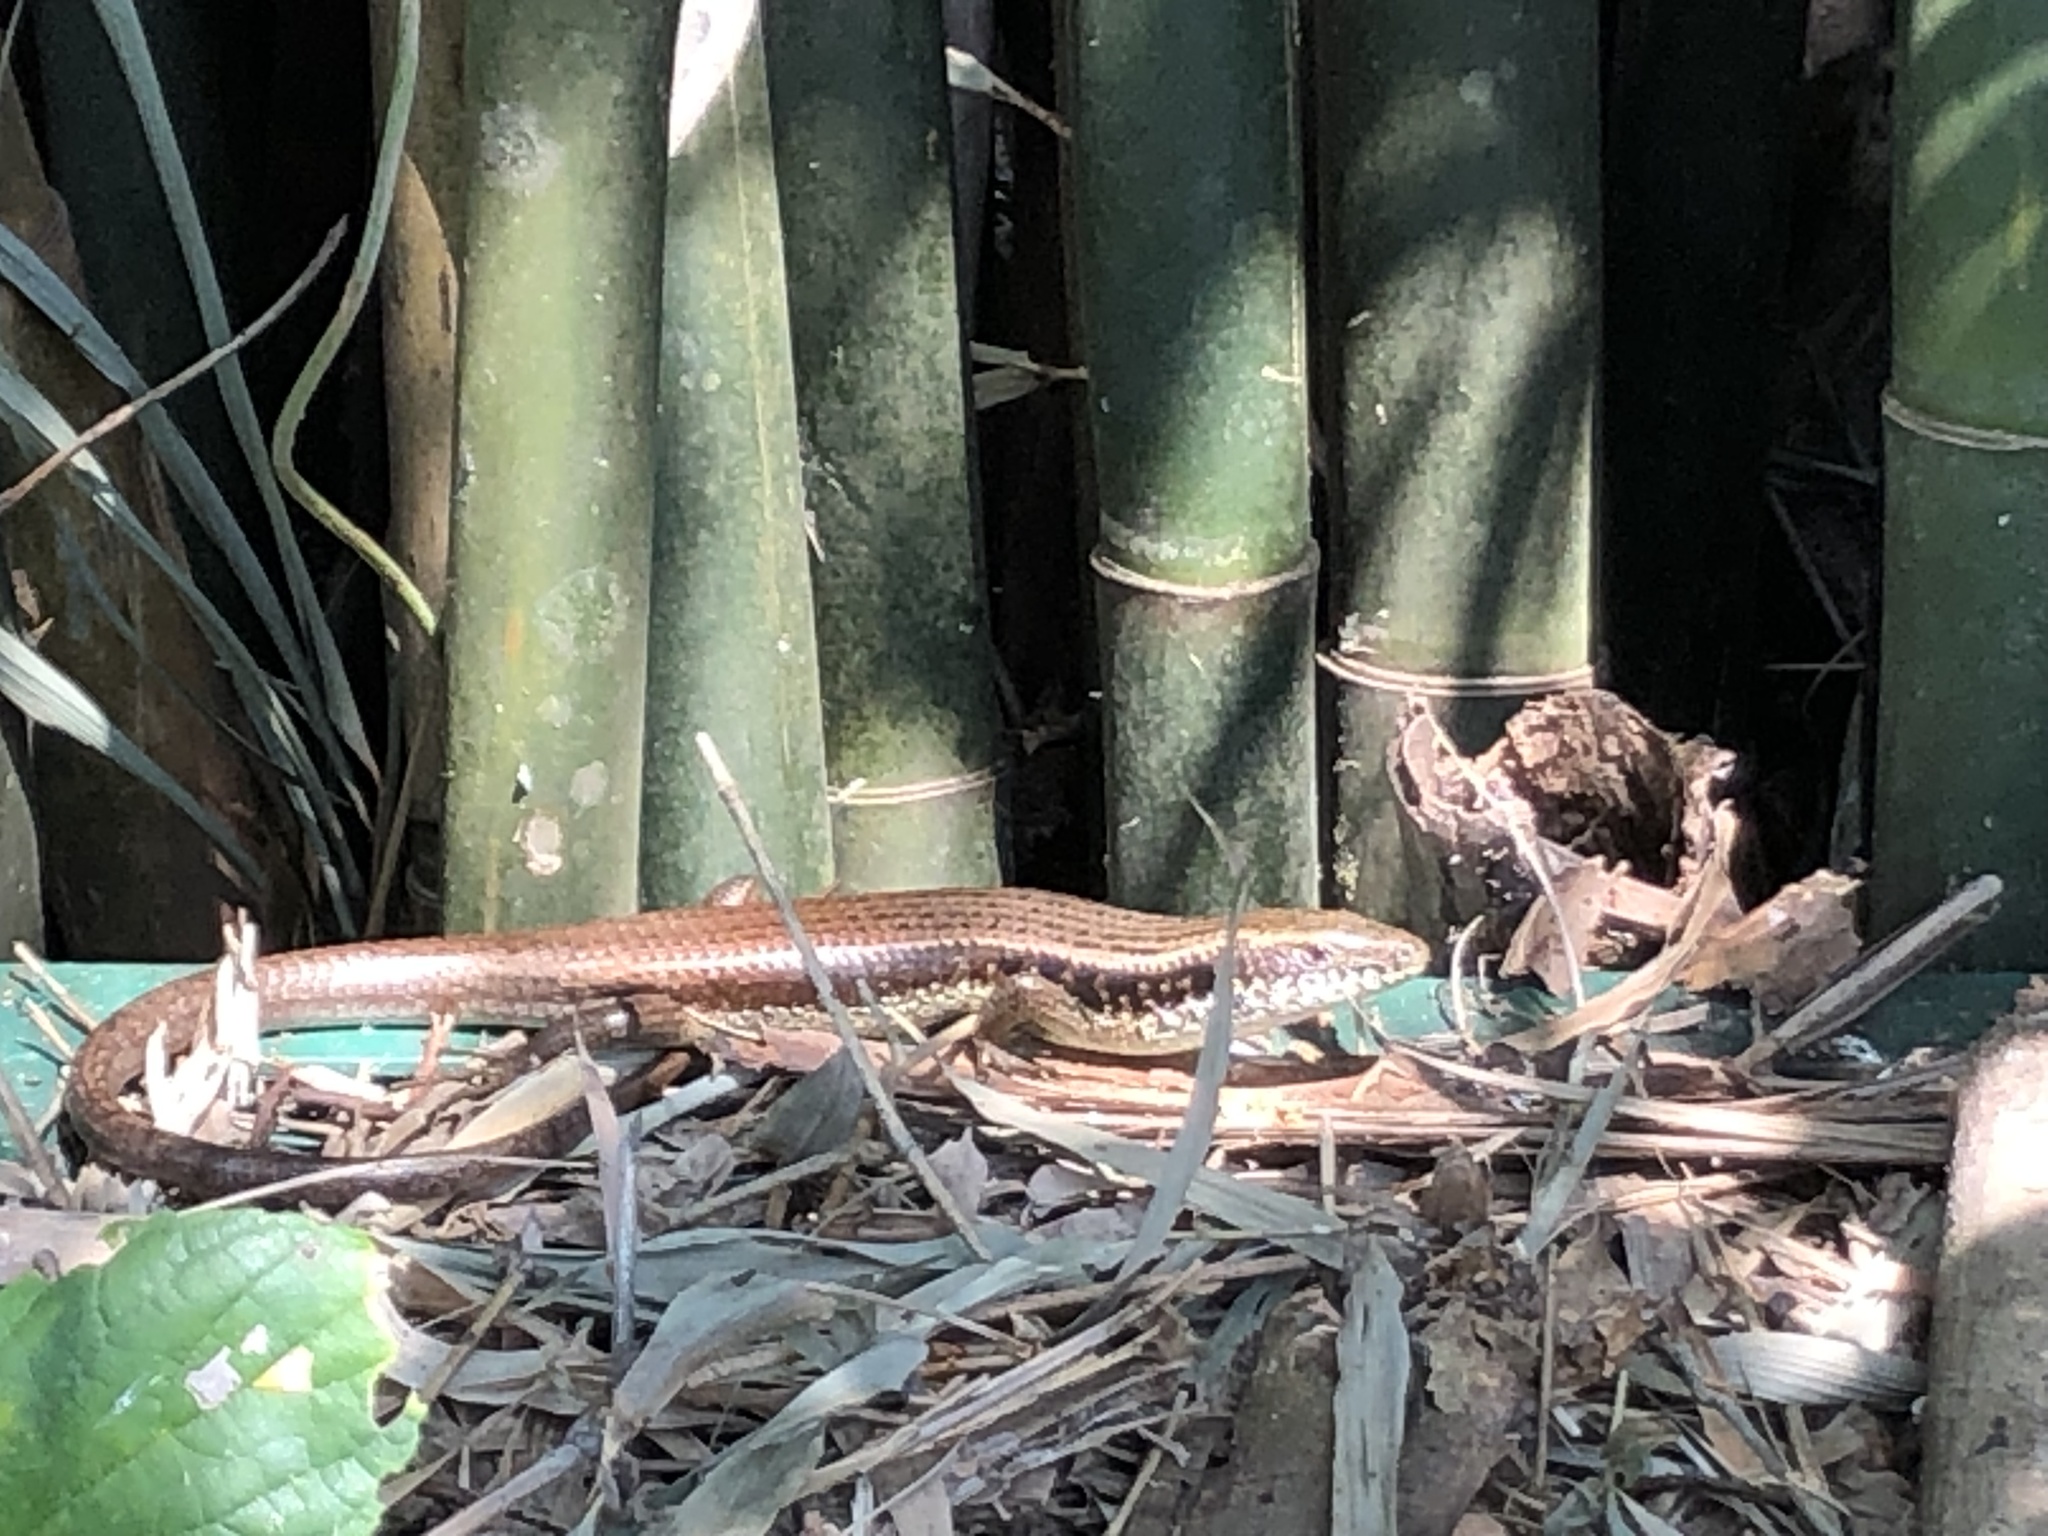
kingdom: Animalia
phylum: Chordata
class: Squamata
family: Scincidae
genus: Eutropis
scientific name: Eutropis longicaudata
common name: Long-tailed sun skink
